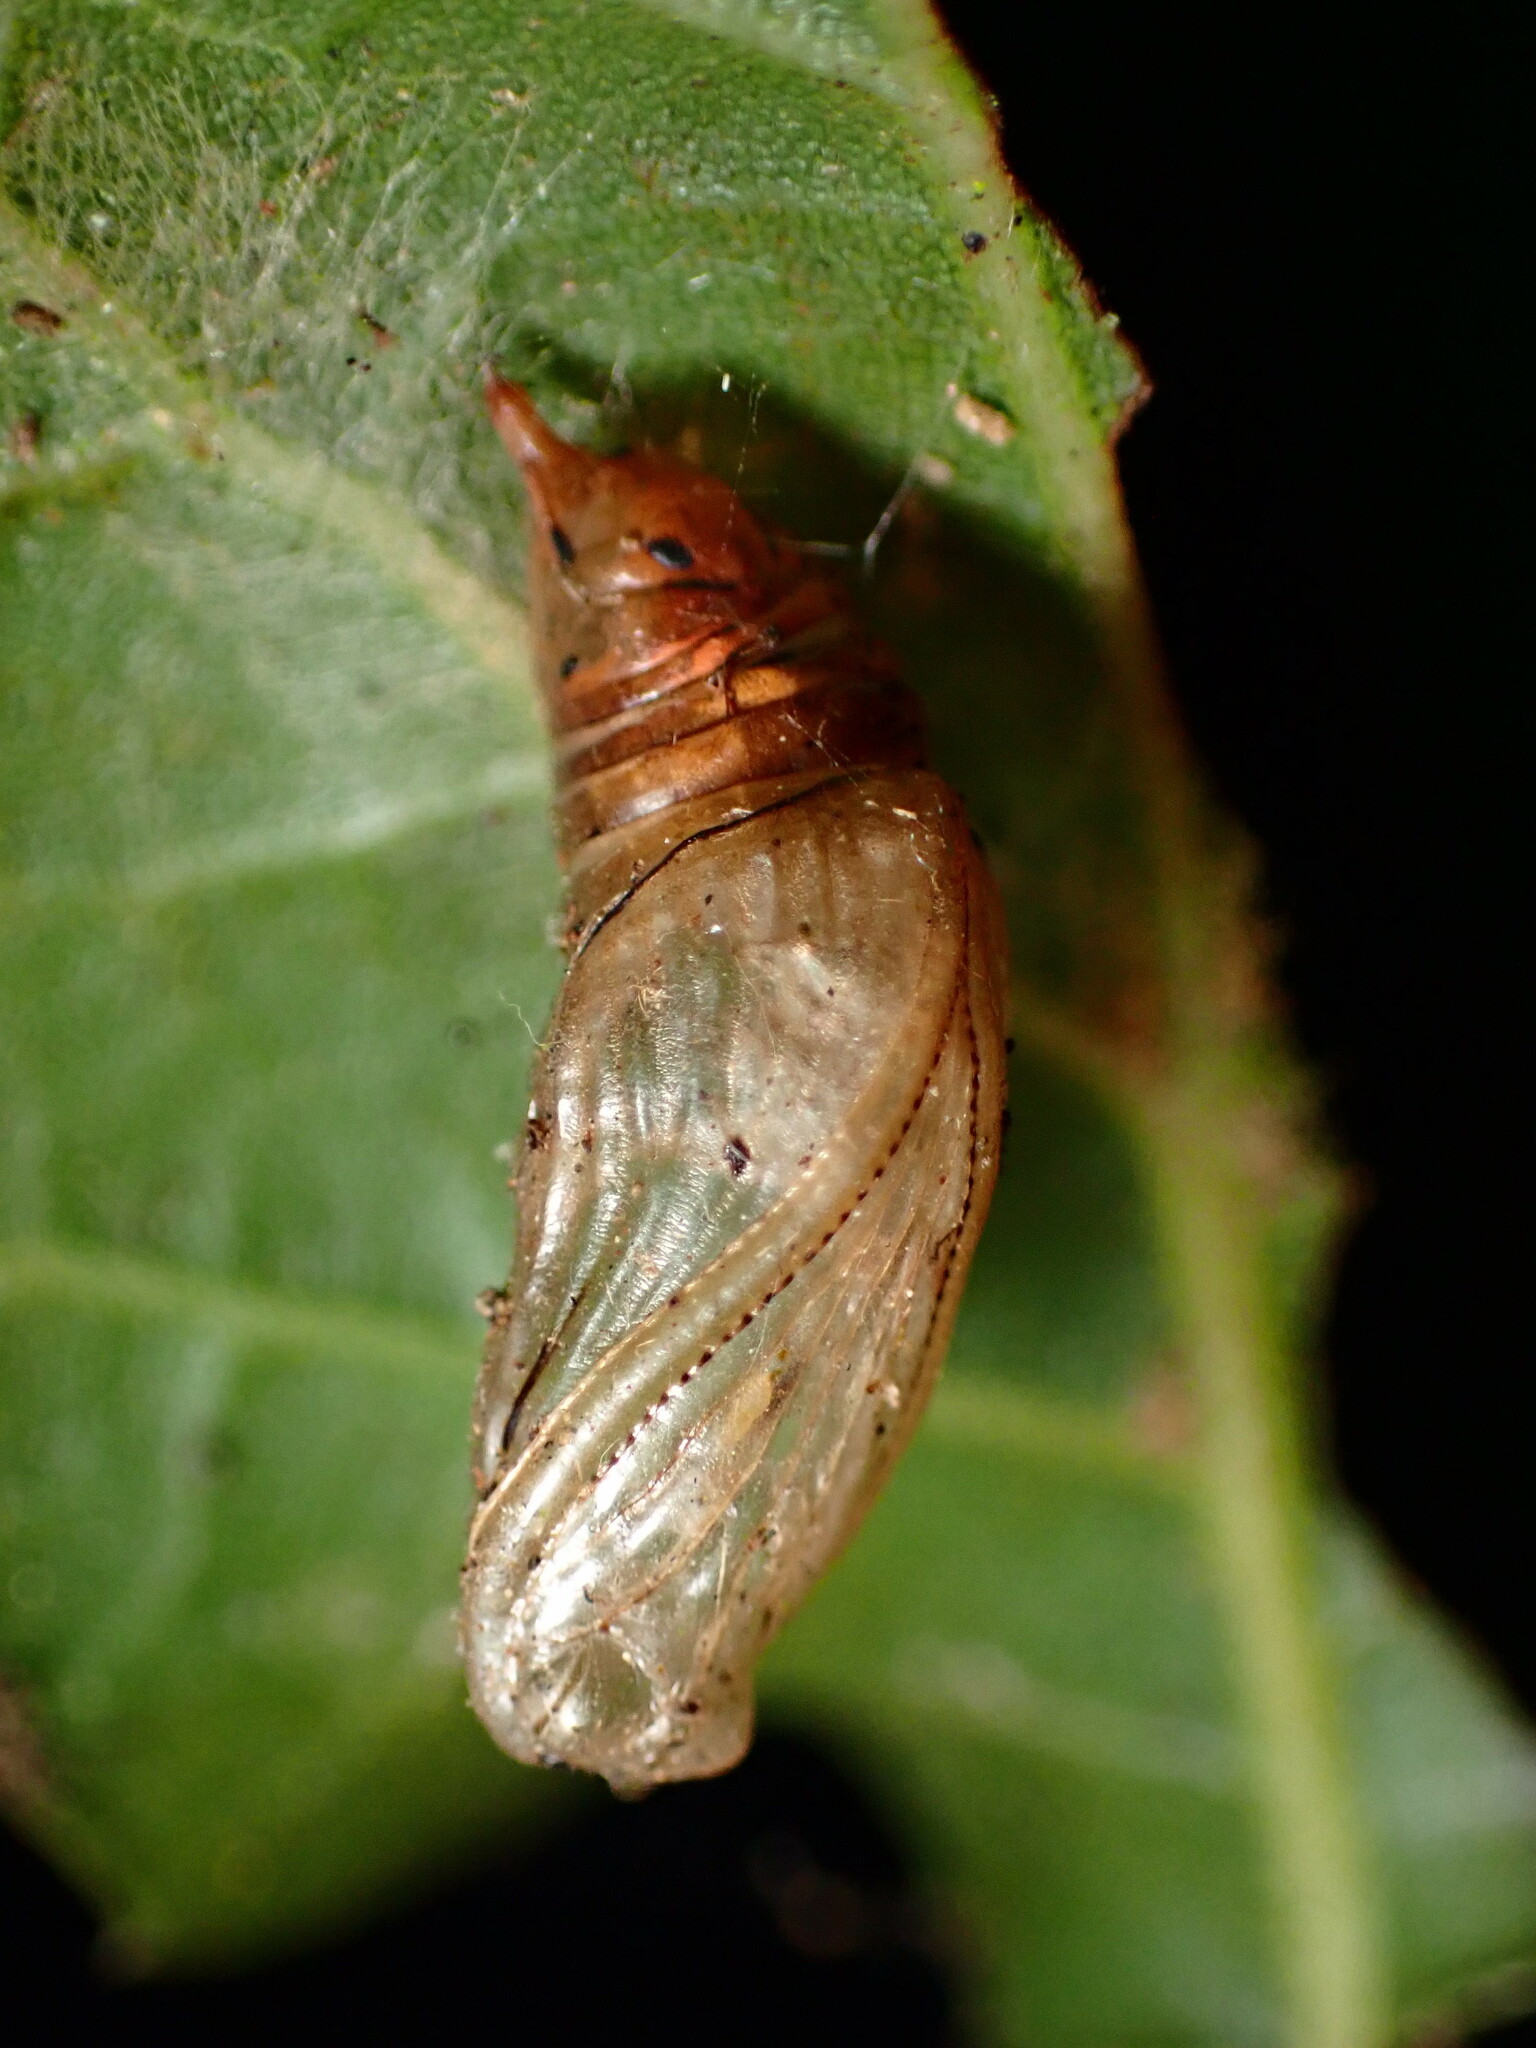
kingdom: Animalia
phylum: Arthropoda
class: Insecta
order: Lepidoptera
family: Notodontidae
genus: Phryganidia
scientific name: Phryganidia californica
